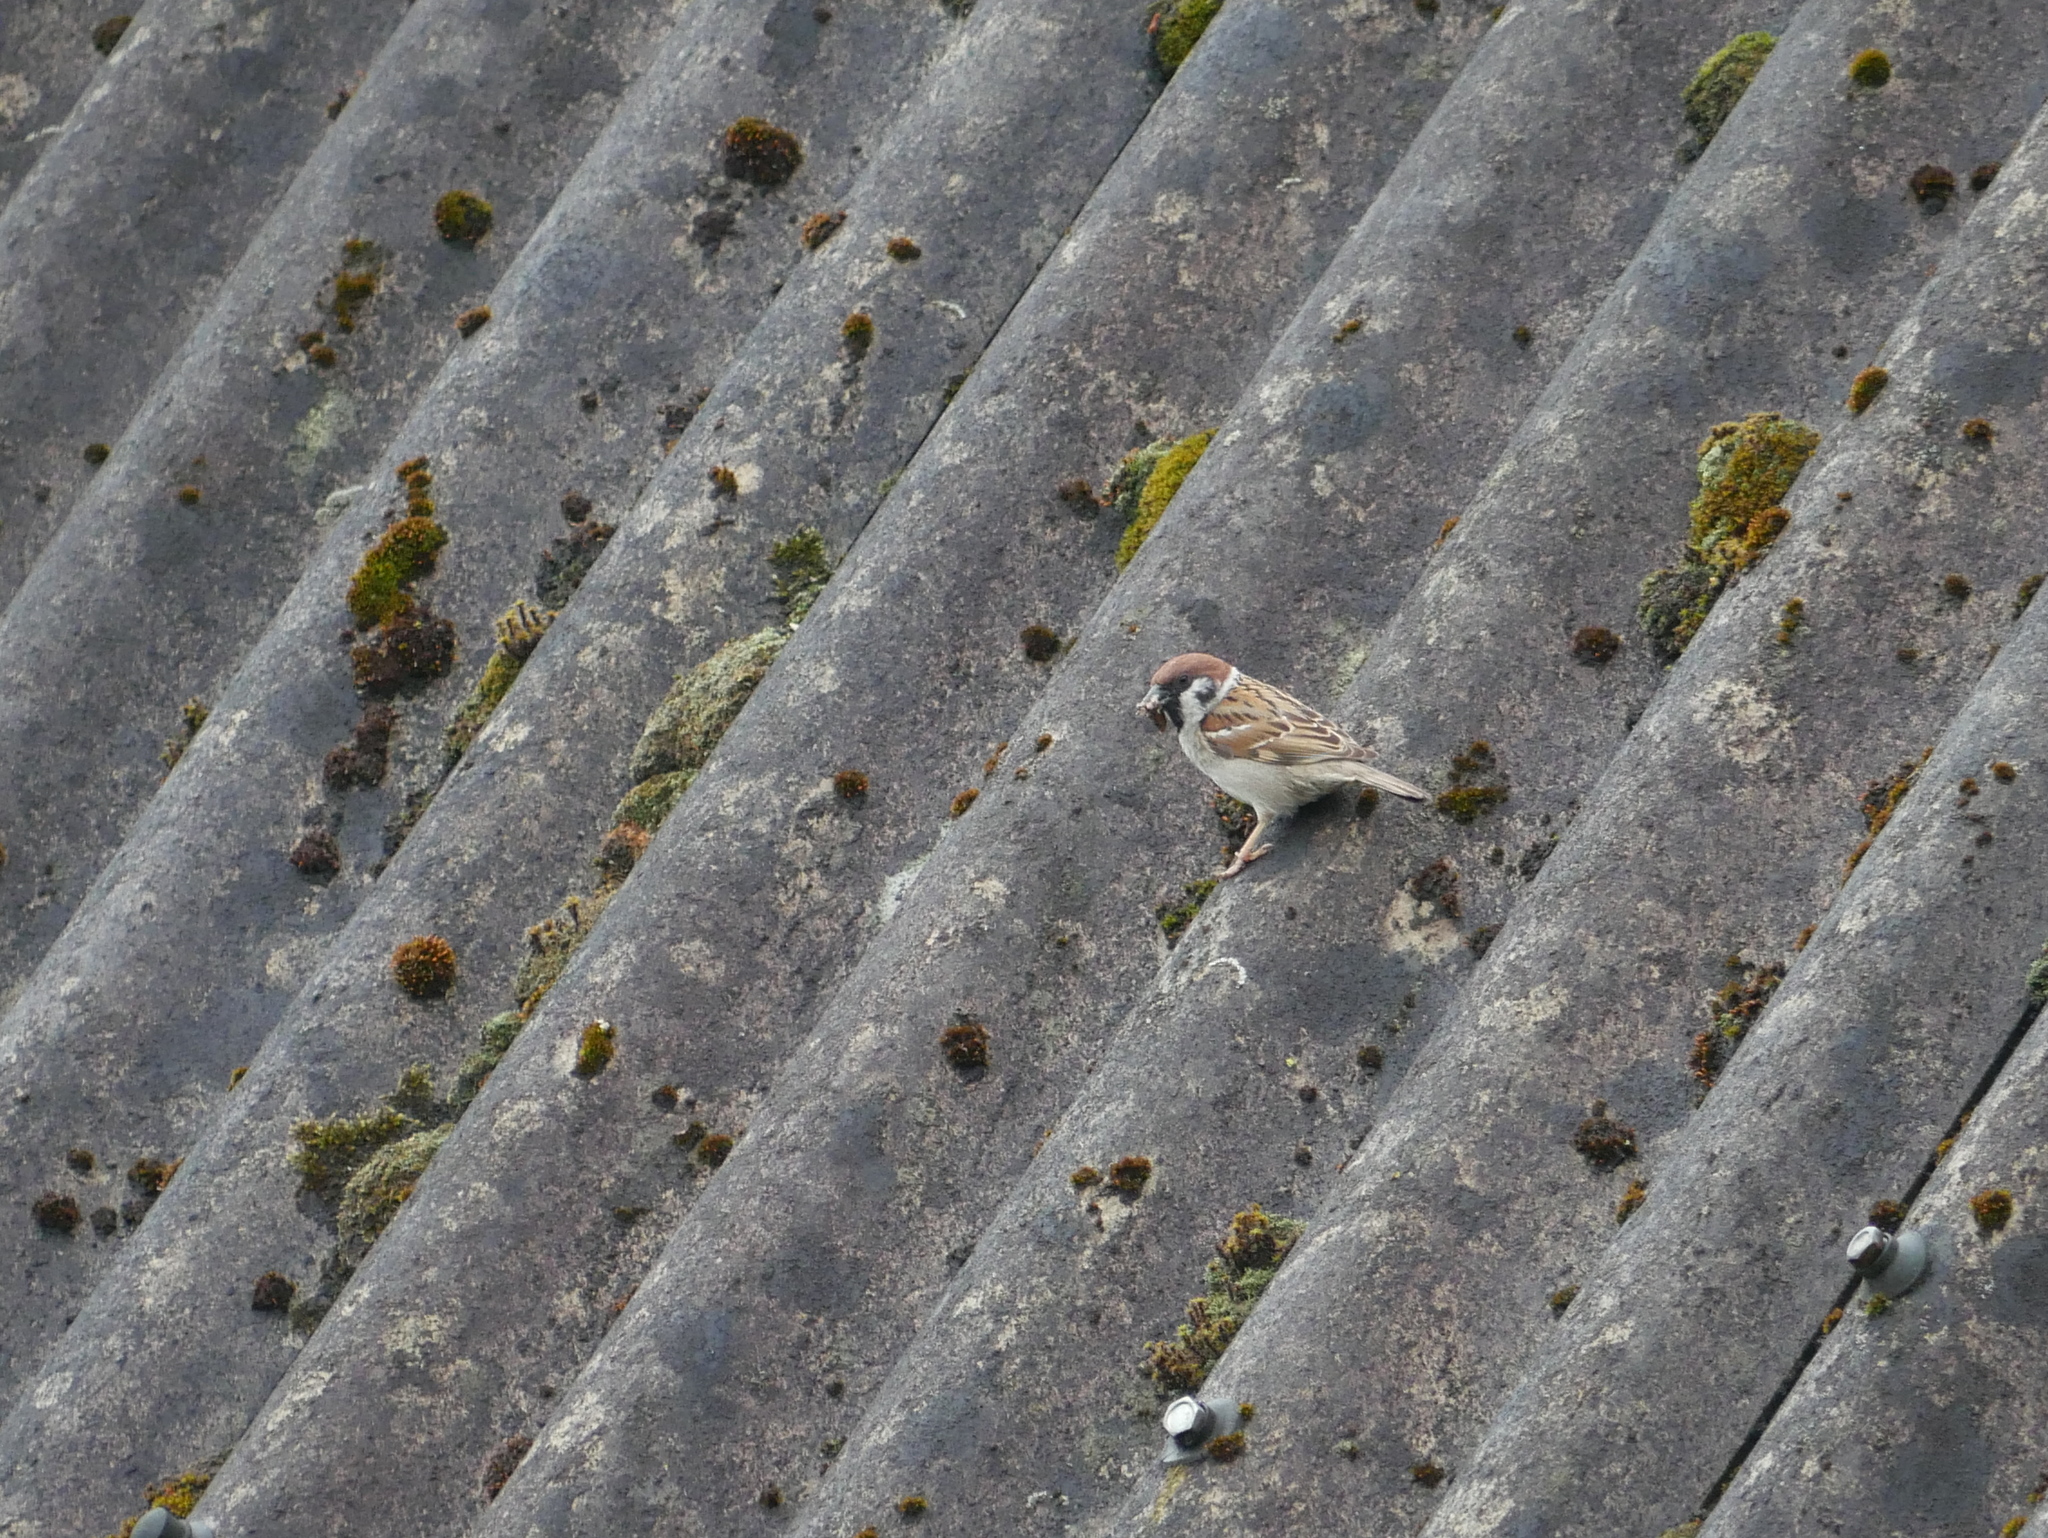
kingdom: Animalia
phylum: Chordata
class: Aves
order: Passeriformes
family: Passeridae
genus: Passer
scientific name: Passer montanus
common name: Eurasian tree sparrow
